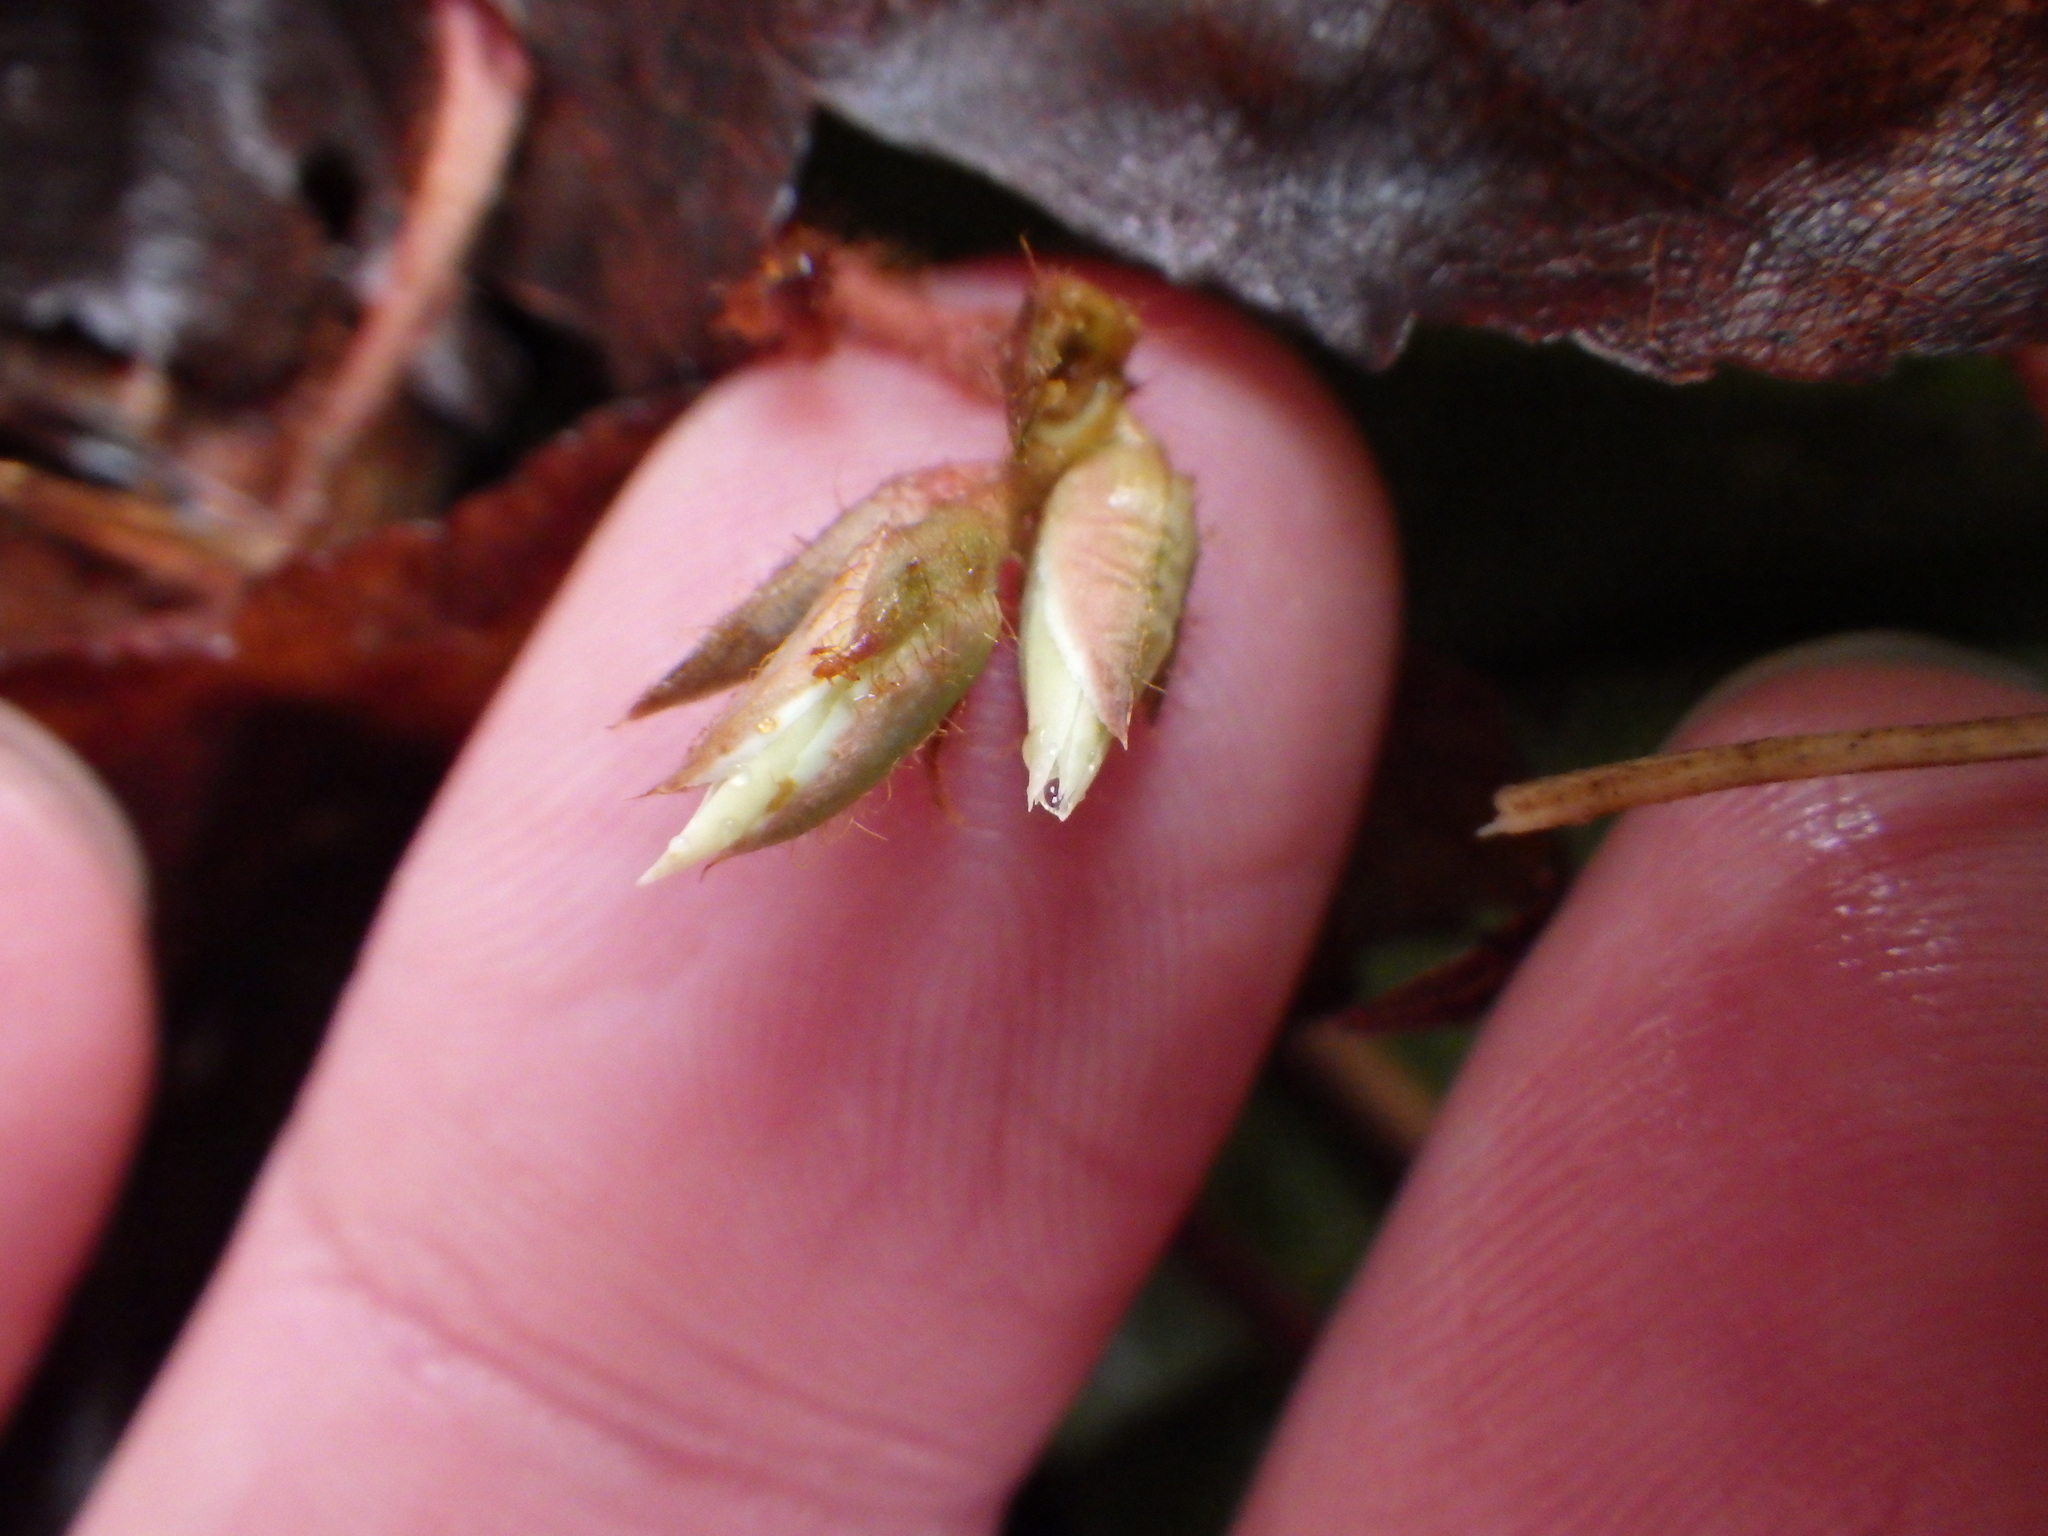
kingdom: Plantae
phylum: Tracheophyta
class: Magnoliopsida
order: Ericales
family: Ericaceae
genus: Epigaea
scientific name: Epigaea repens
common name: Gravelroot
